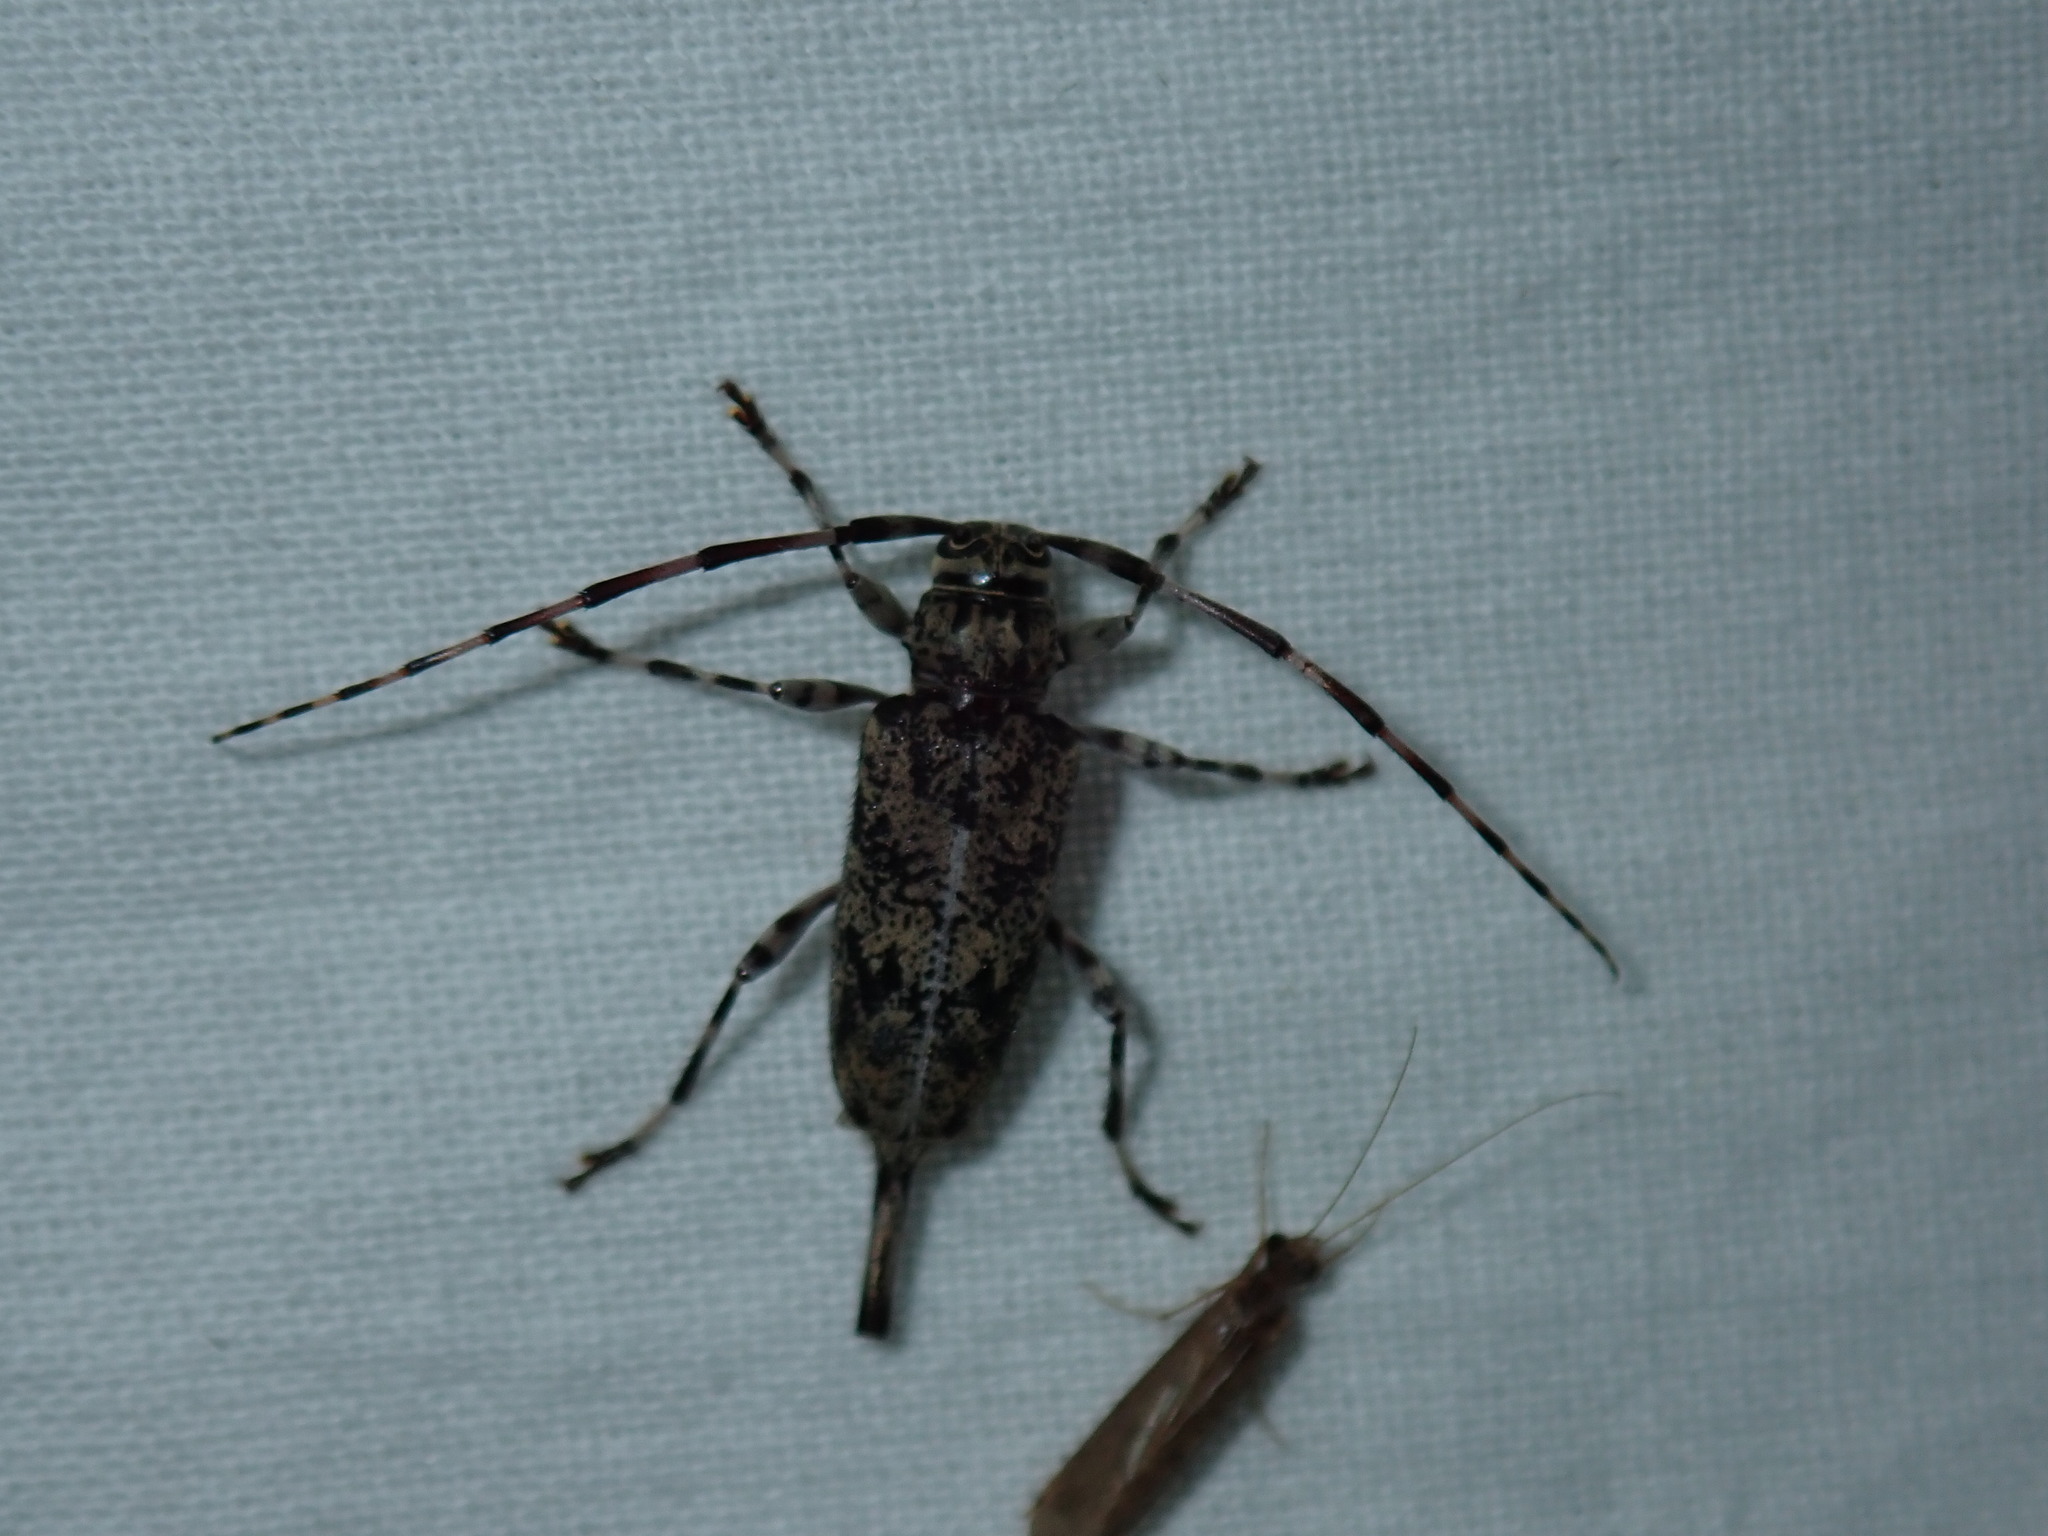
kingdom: Animalia
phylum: Arthropoda
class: Insecta
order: Coleoptera
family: Cerambycidae
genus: Graphisurus
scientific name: Graphisurus fasciatus
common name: Banded graphisurus
